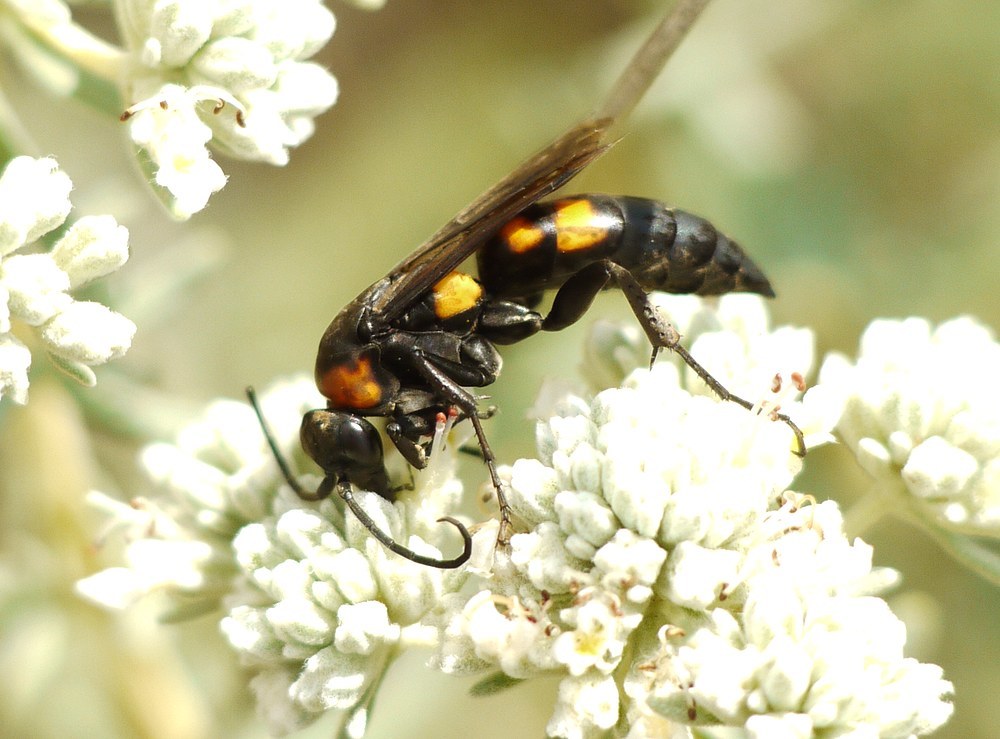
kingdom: Animalia
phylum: Arthropoda
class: Insecta
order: Hymenoptera
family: Pompilidae
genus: Eoferreola
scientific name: Eoferreola erythraea
